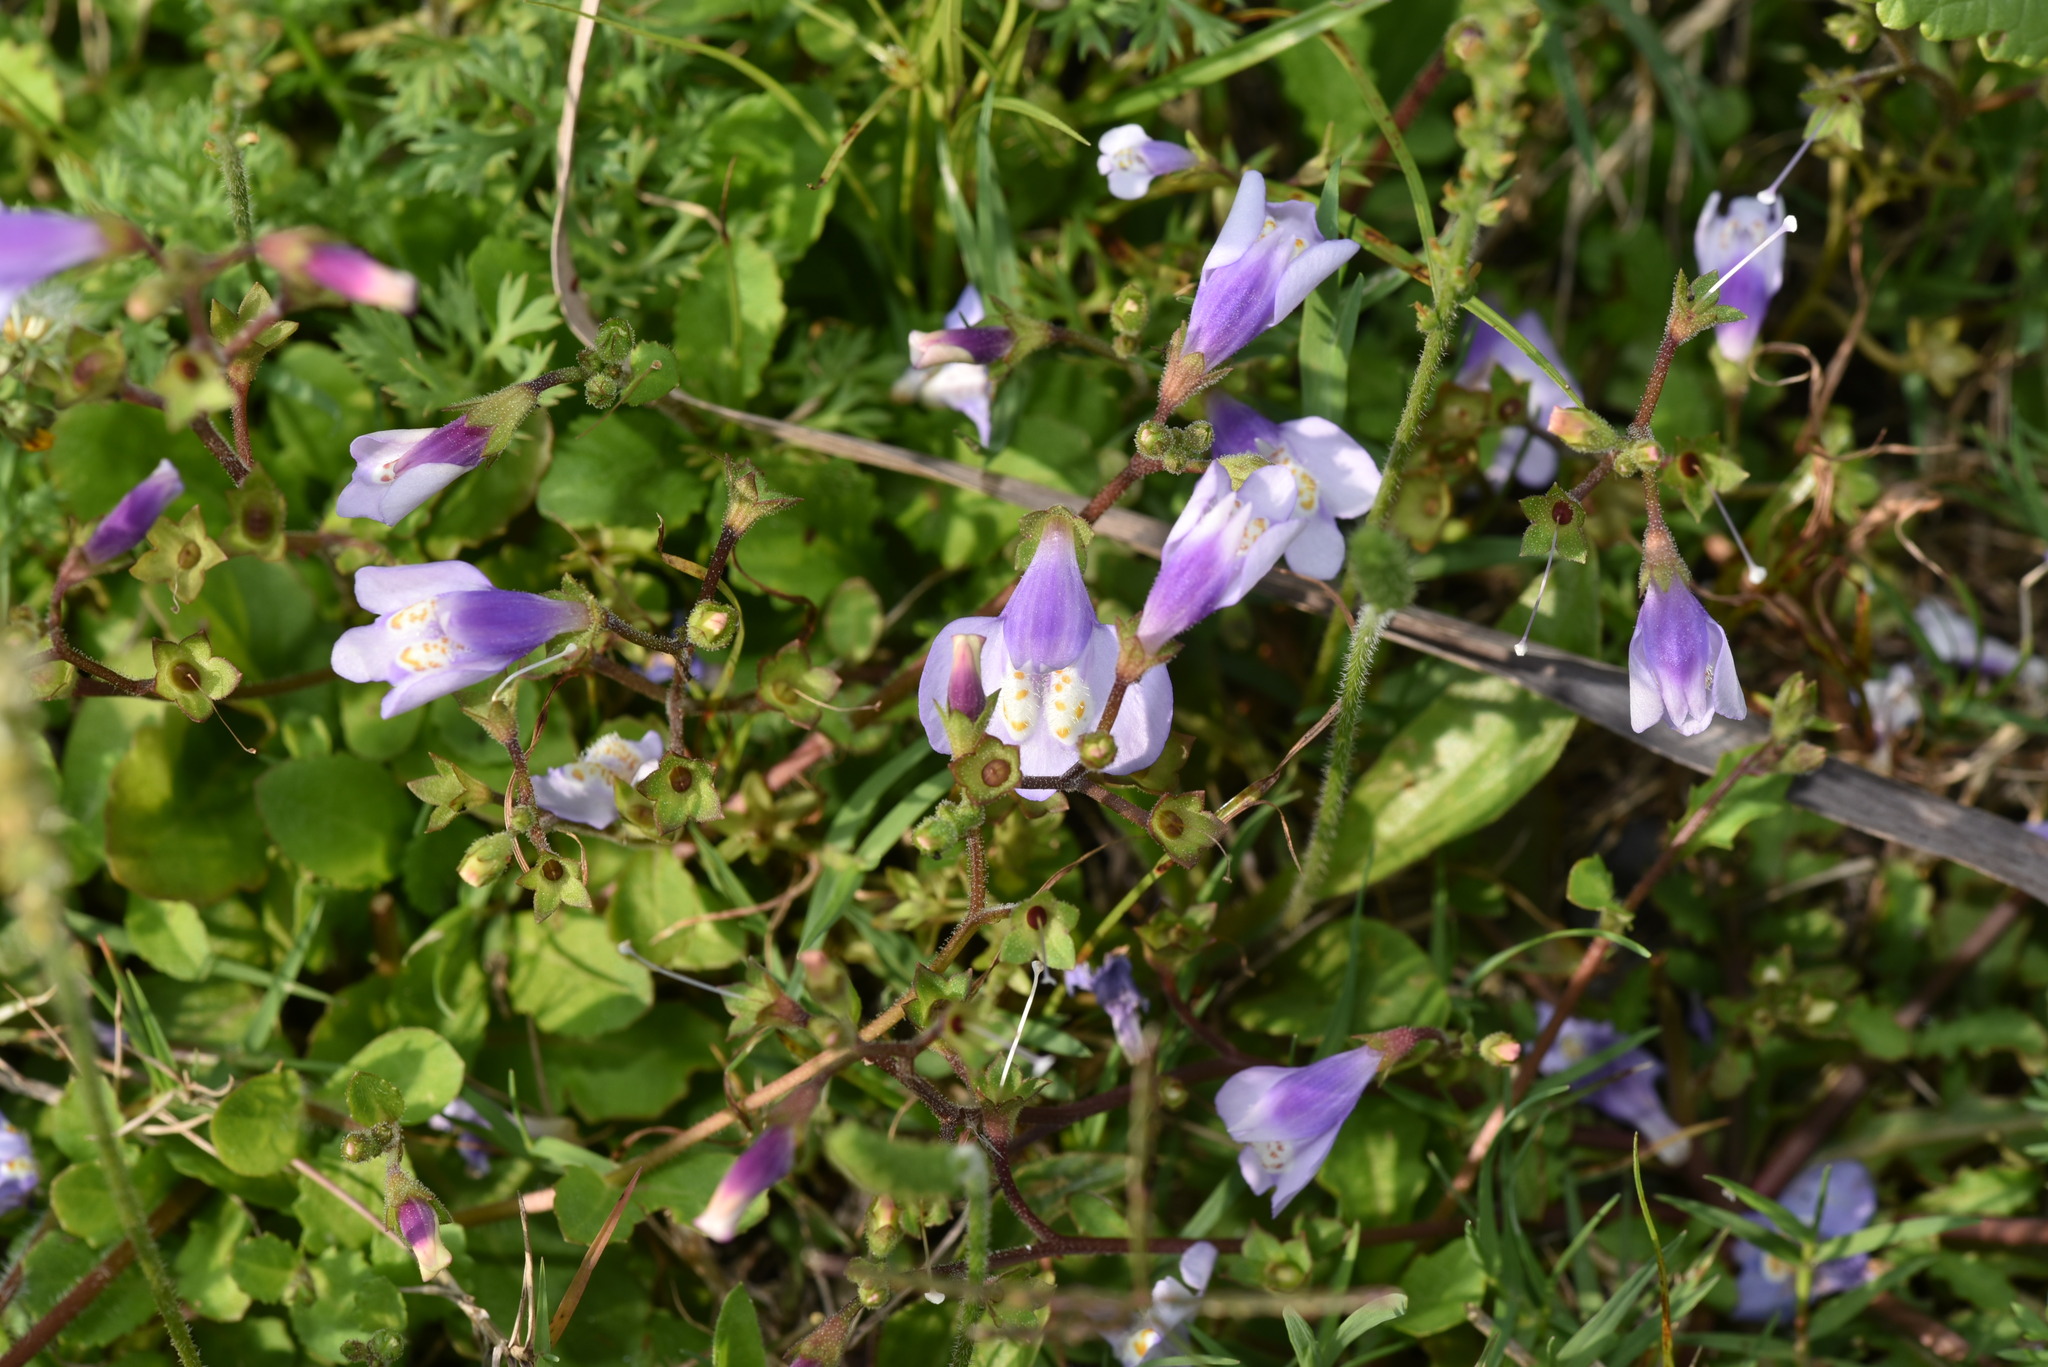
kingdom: Plantae
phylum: Tracheophyta
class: Magnoliopsida
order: Lamiales
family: Mazaceae
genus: Mazus
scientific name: Mazus fauriei
